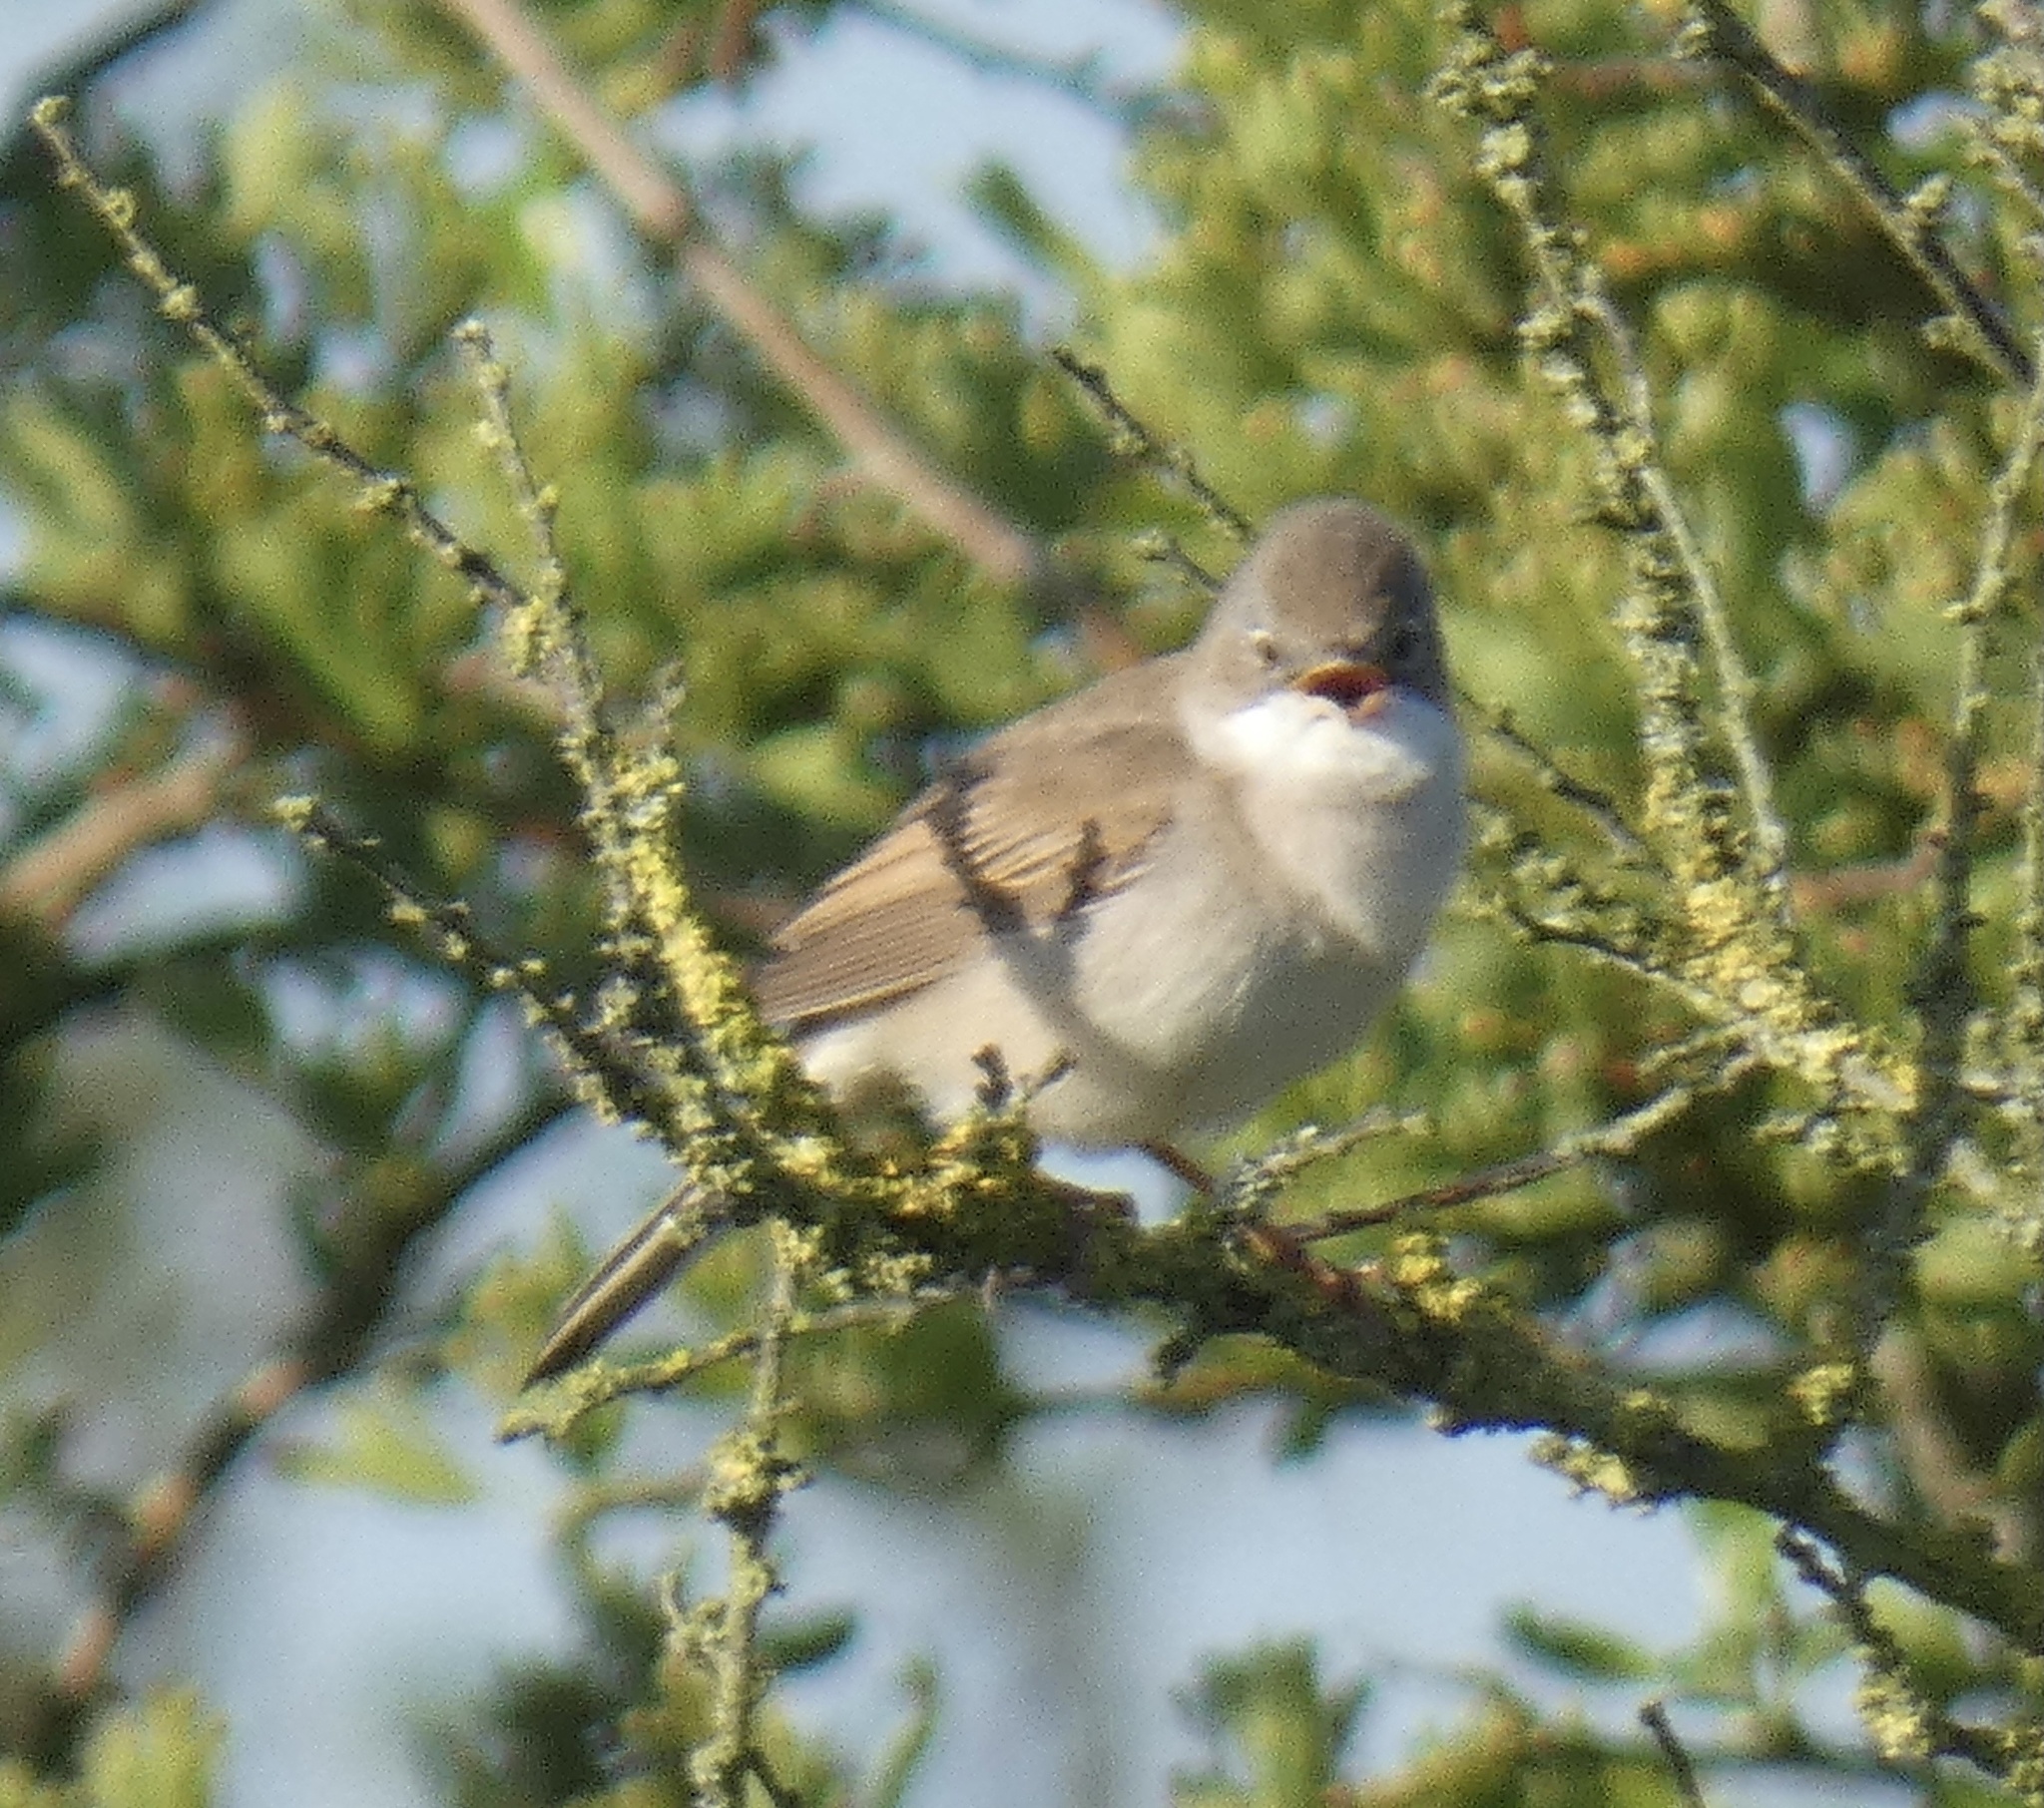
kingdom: Animalia
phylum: Chordata
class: Aves
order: Passeriformes
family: Sylviidae
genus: Sylvia
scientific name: Sylvia communis
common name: Common whitethroat
